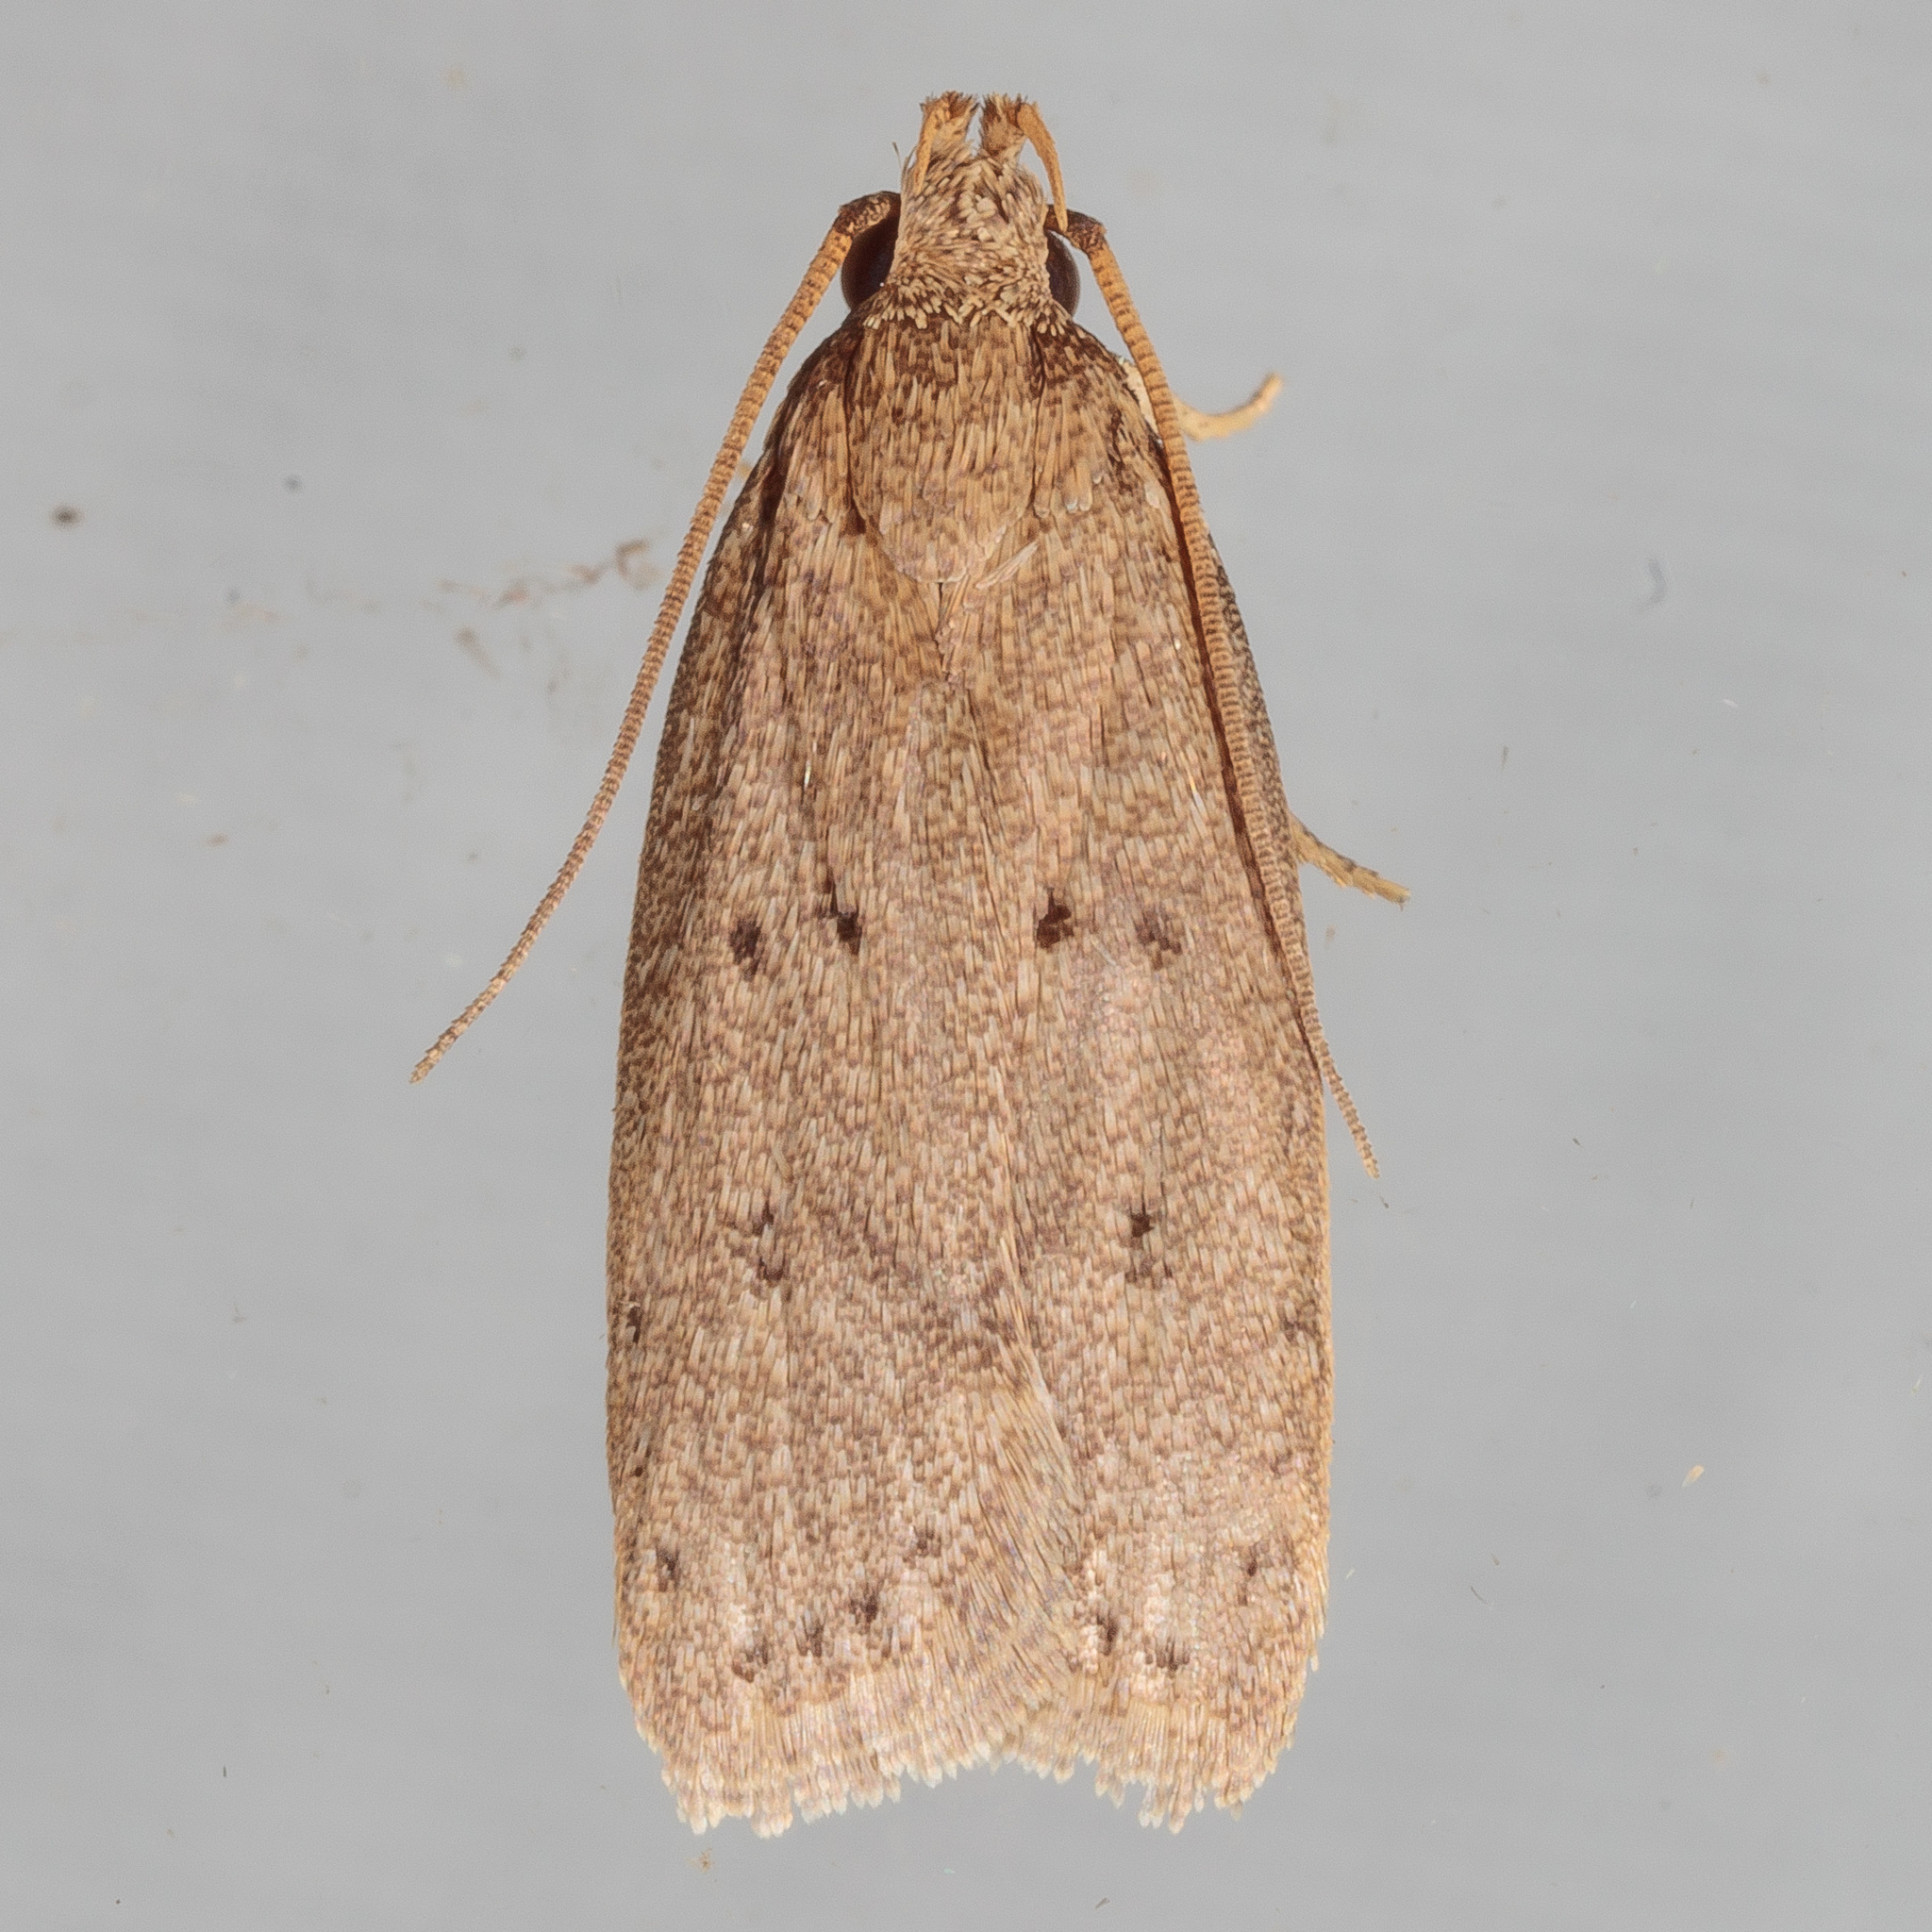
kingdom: Animalia
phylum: Arthropoda
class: Insecta
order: Lepidoptera
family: Autostichidae
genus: Autosticha
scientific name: Autosticha kyotensis
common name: Kyoto moth
